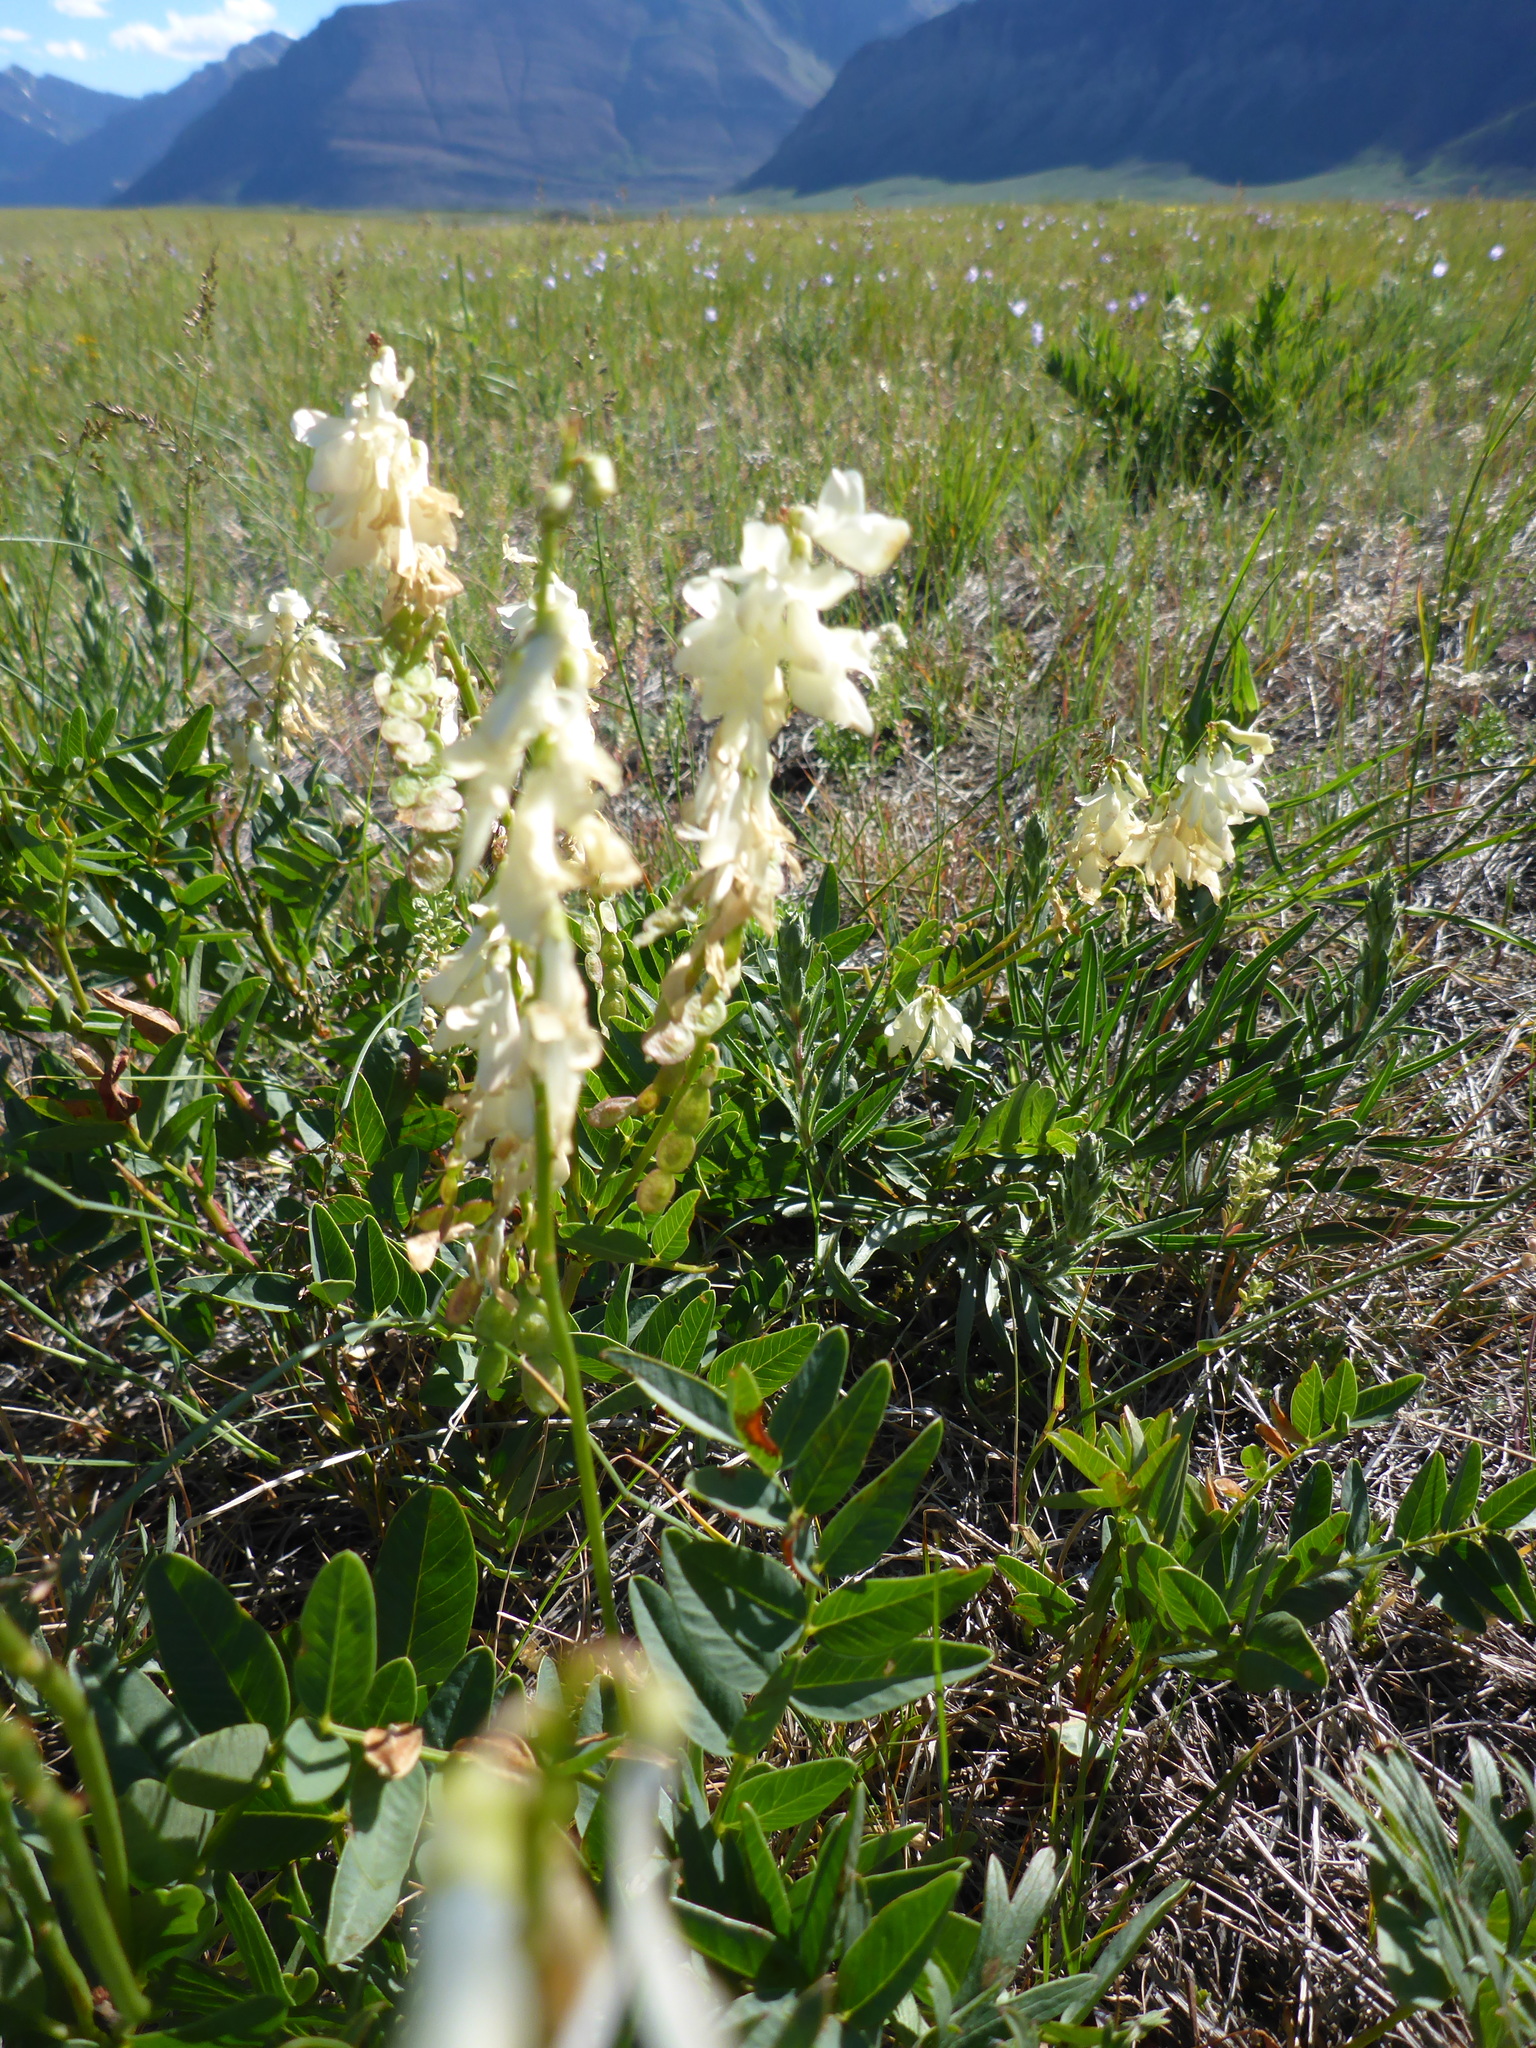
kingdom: Plantae
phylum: Tracheophyta
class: Magnoliopsida
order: Fabales
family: Fabaceae
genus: Hedysarum
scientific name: Hedysarum sulphurescens
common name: Sulphur hedysarum
